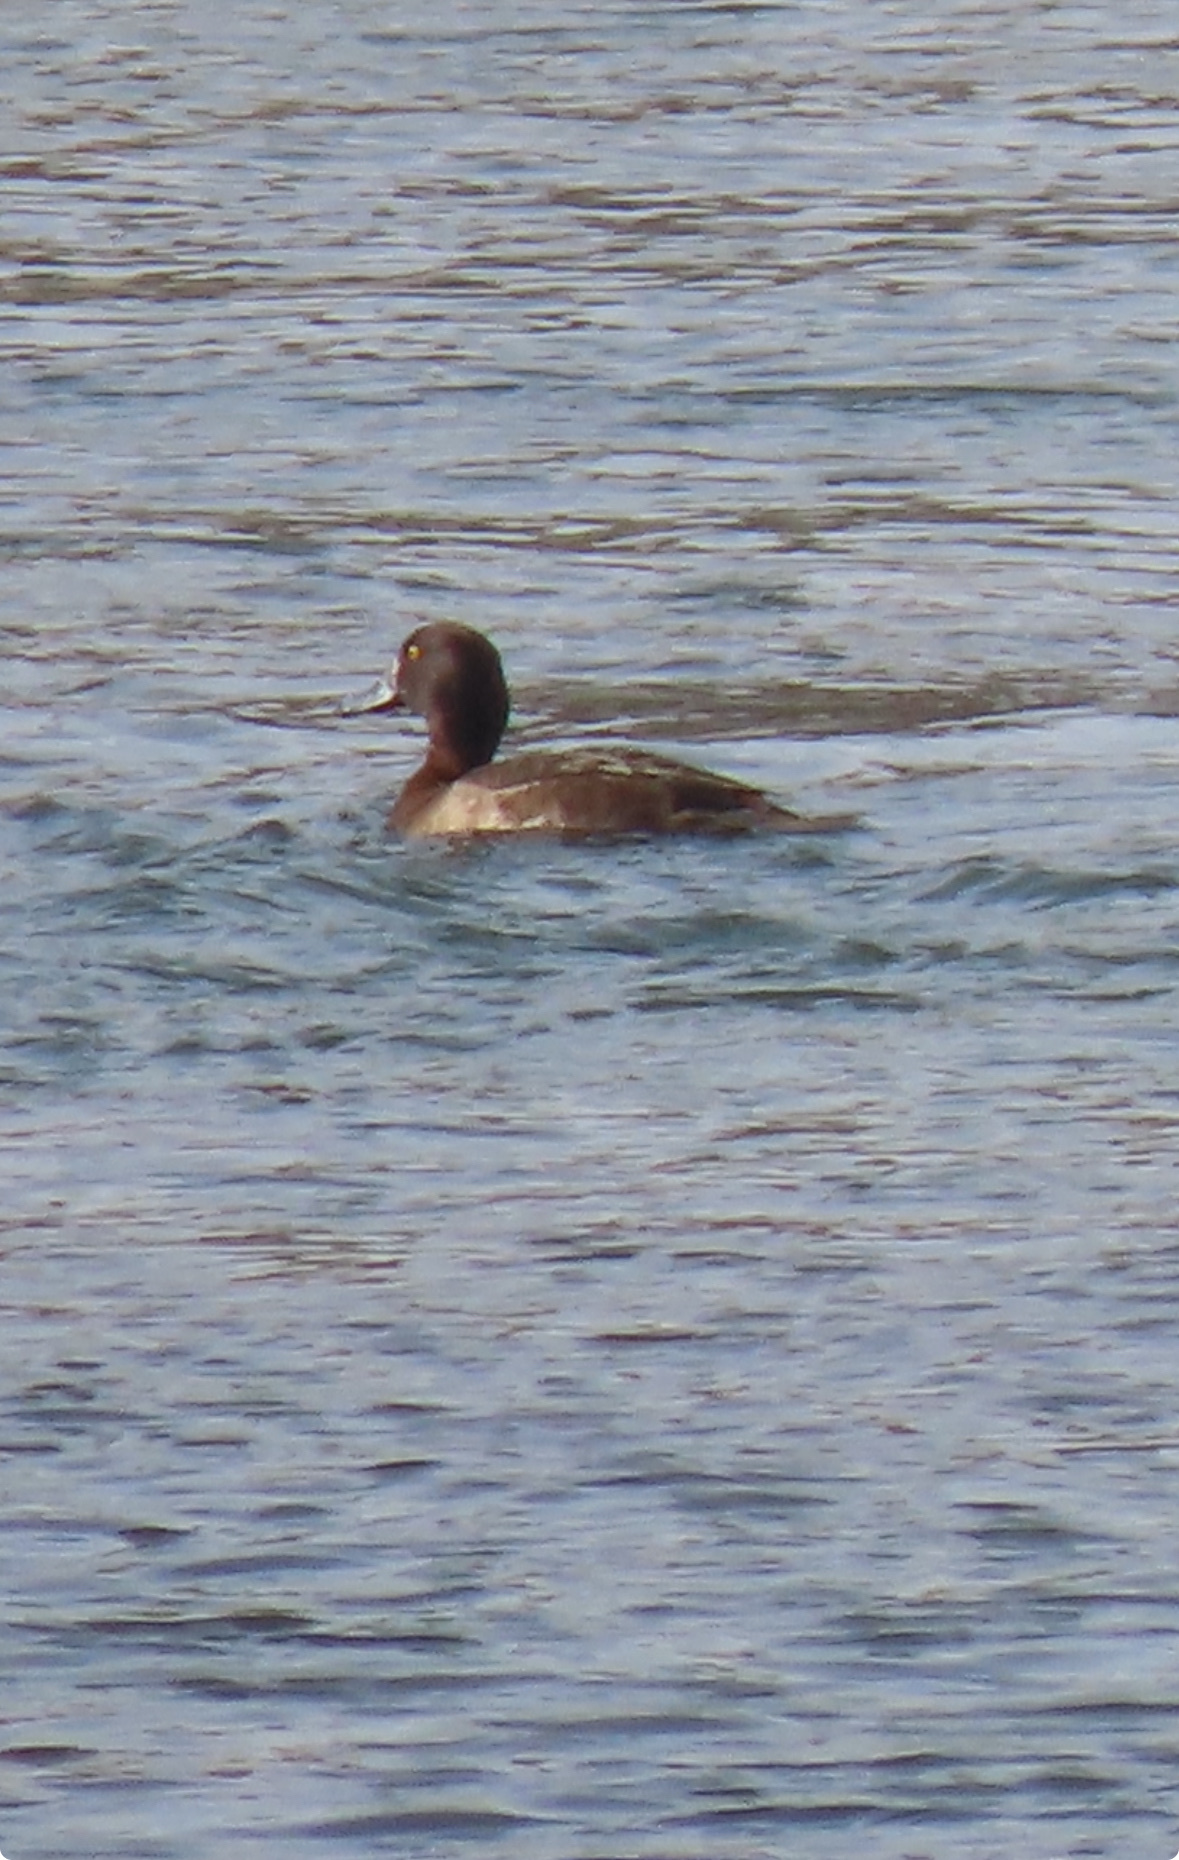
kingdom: Animalia
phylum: Chordata
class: Aves
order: Anseriformes
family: Anatidae
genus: Aythya
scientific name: Aythya fuligula
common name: Tufted duck
